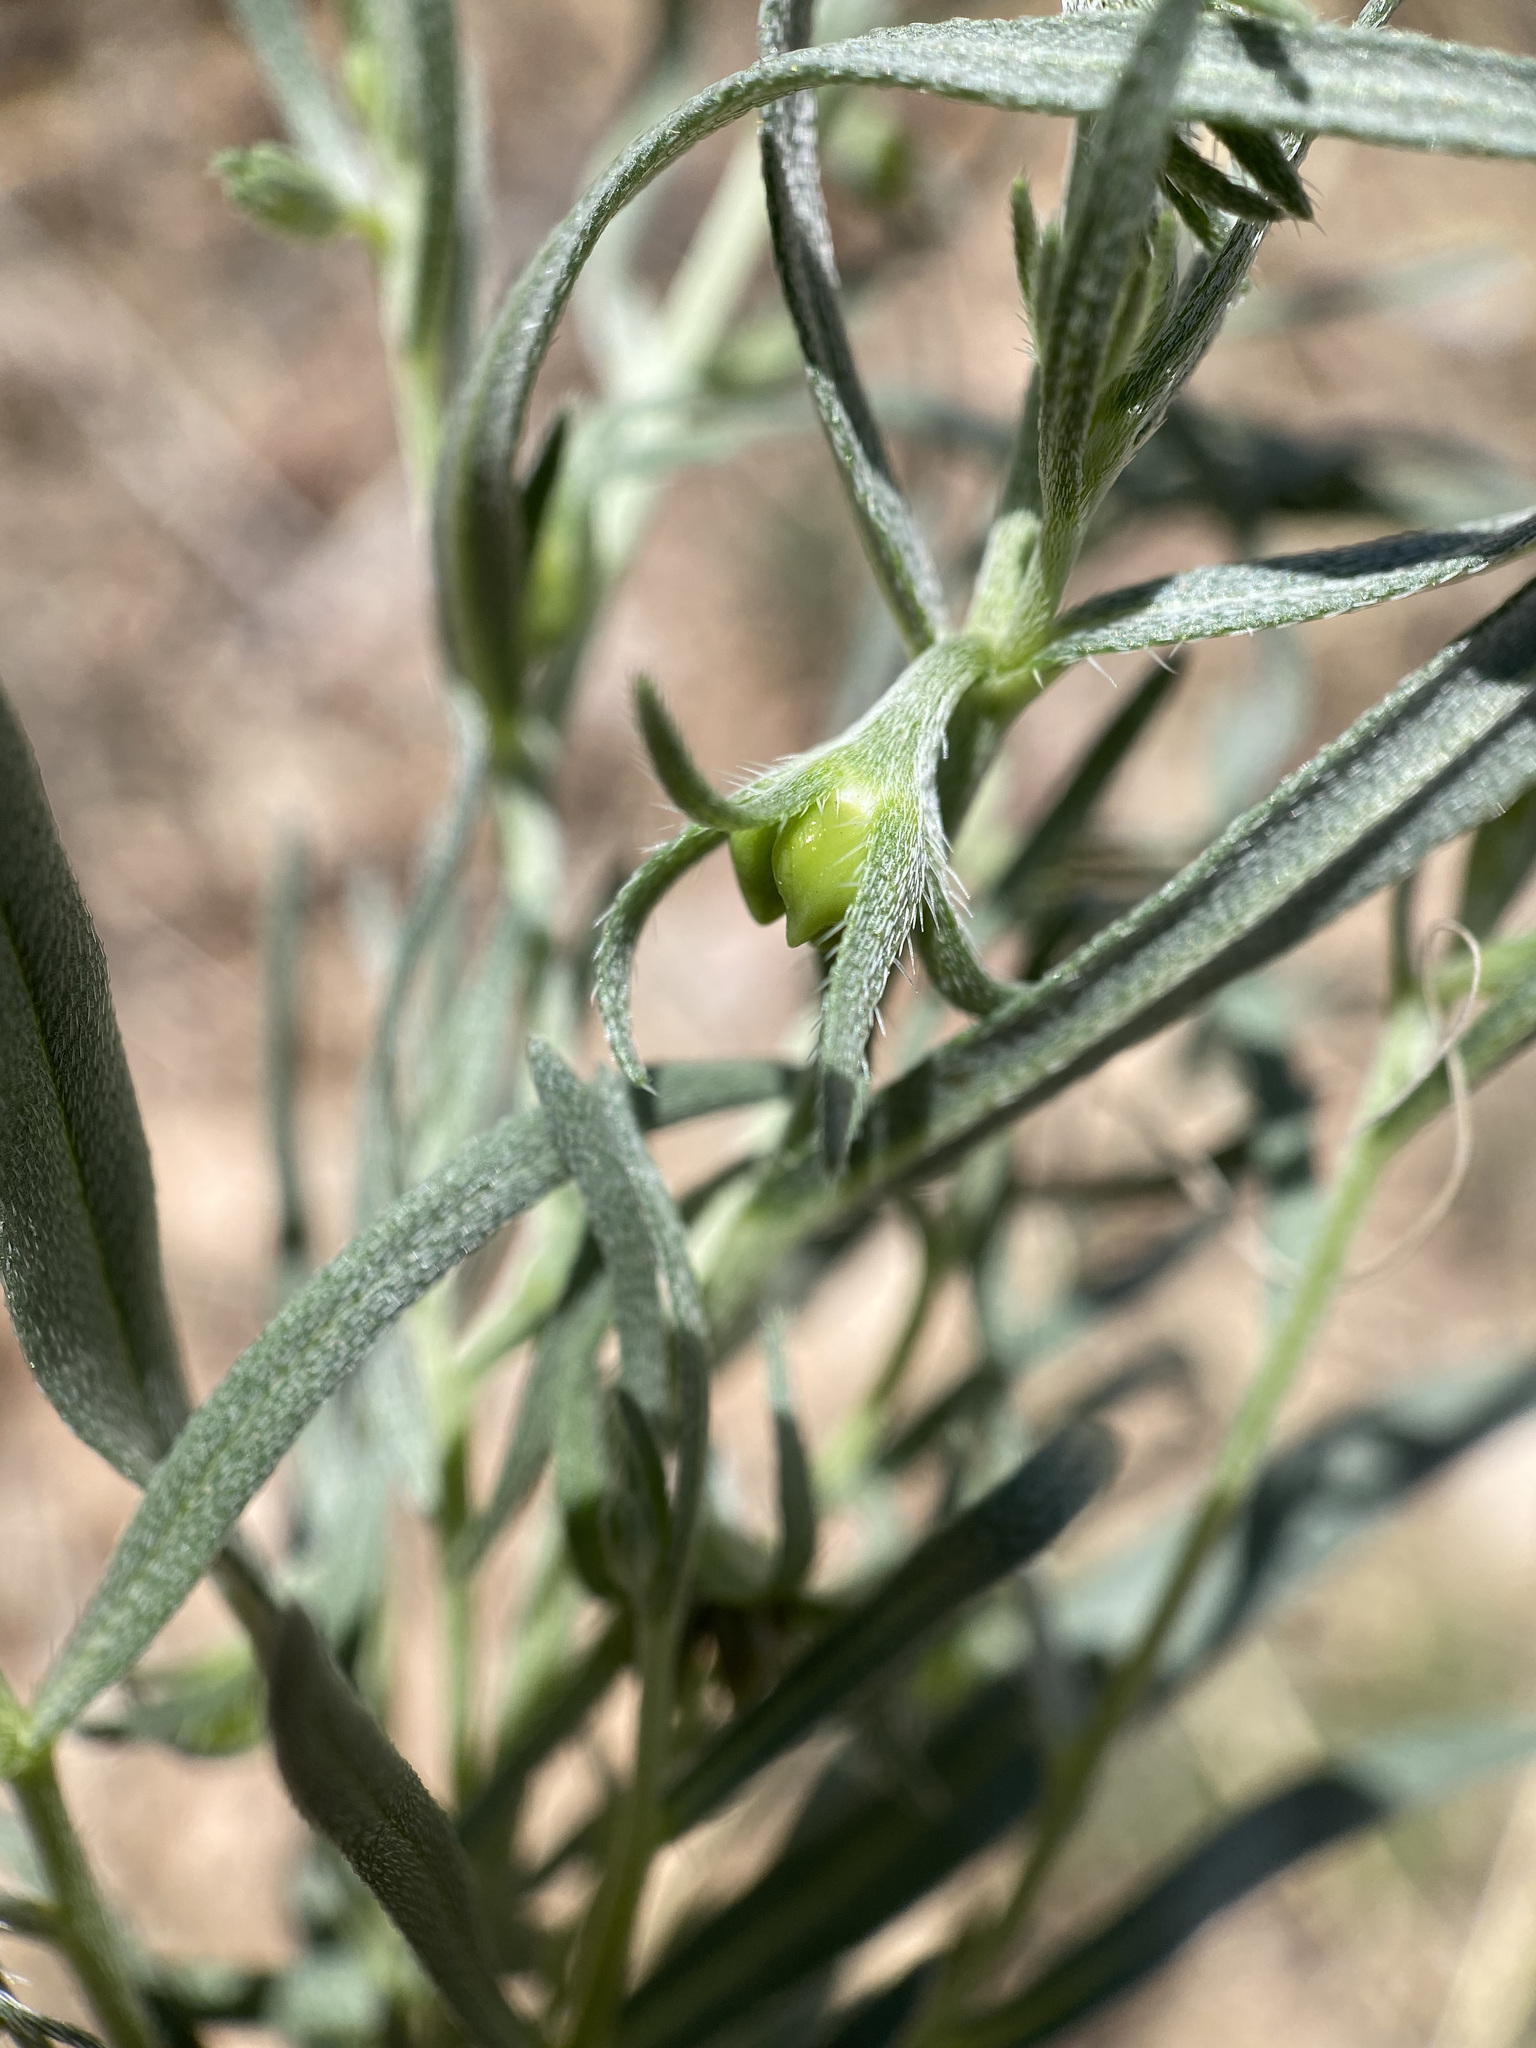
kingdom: Plantae
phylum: Tracheophyta
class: Magnoliopsida
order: Boraginales
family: Boraginaceae
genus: Lithospermum
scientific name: Lithospermum incisum
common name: Fringed gromwell
